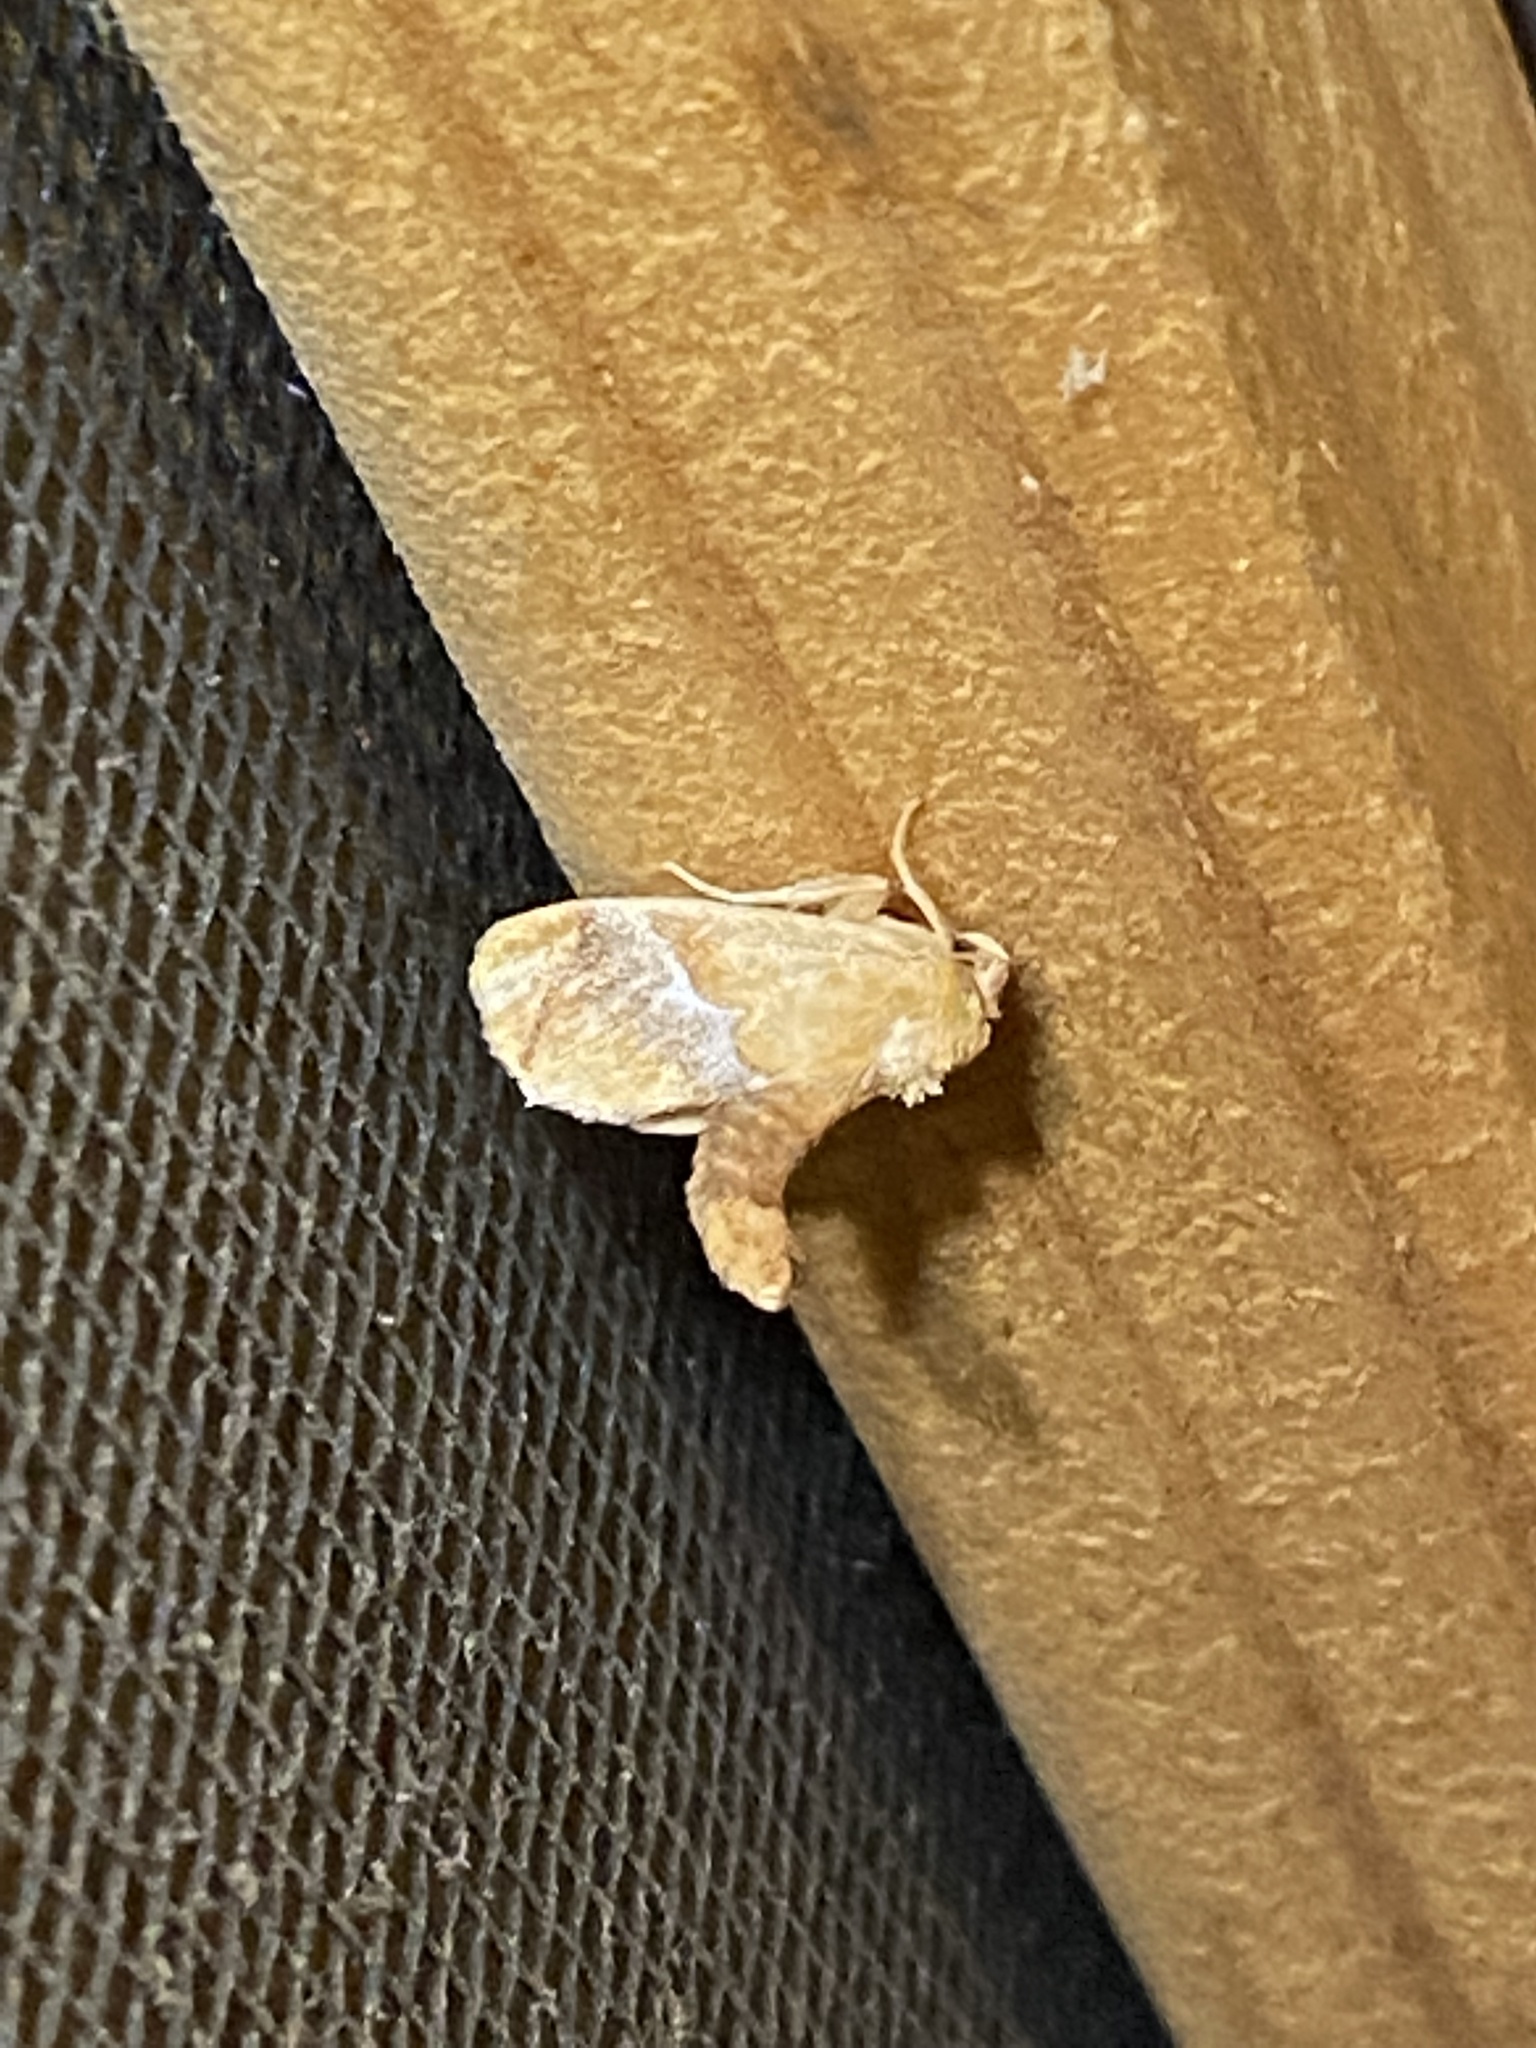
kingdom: Animalia
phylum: Arthropoda
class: Insecta
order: Lepidoptera
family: Limacodidae
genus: Lithacodes
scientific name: Lithacodes fasciola
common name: Yellow-shouldered slug moth
